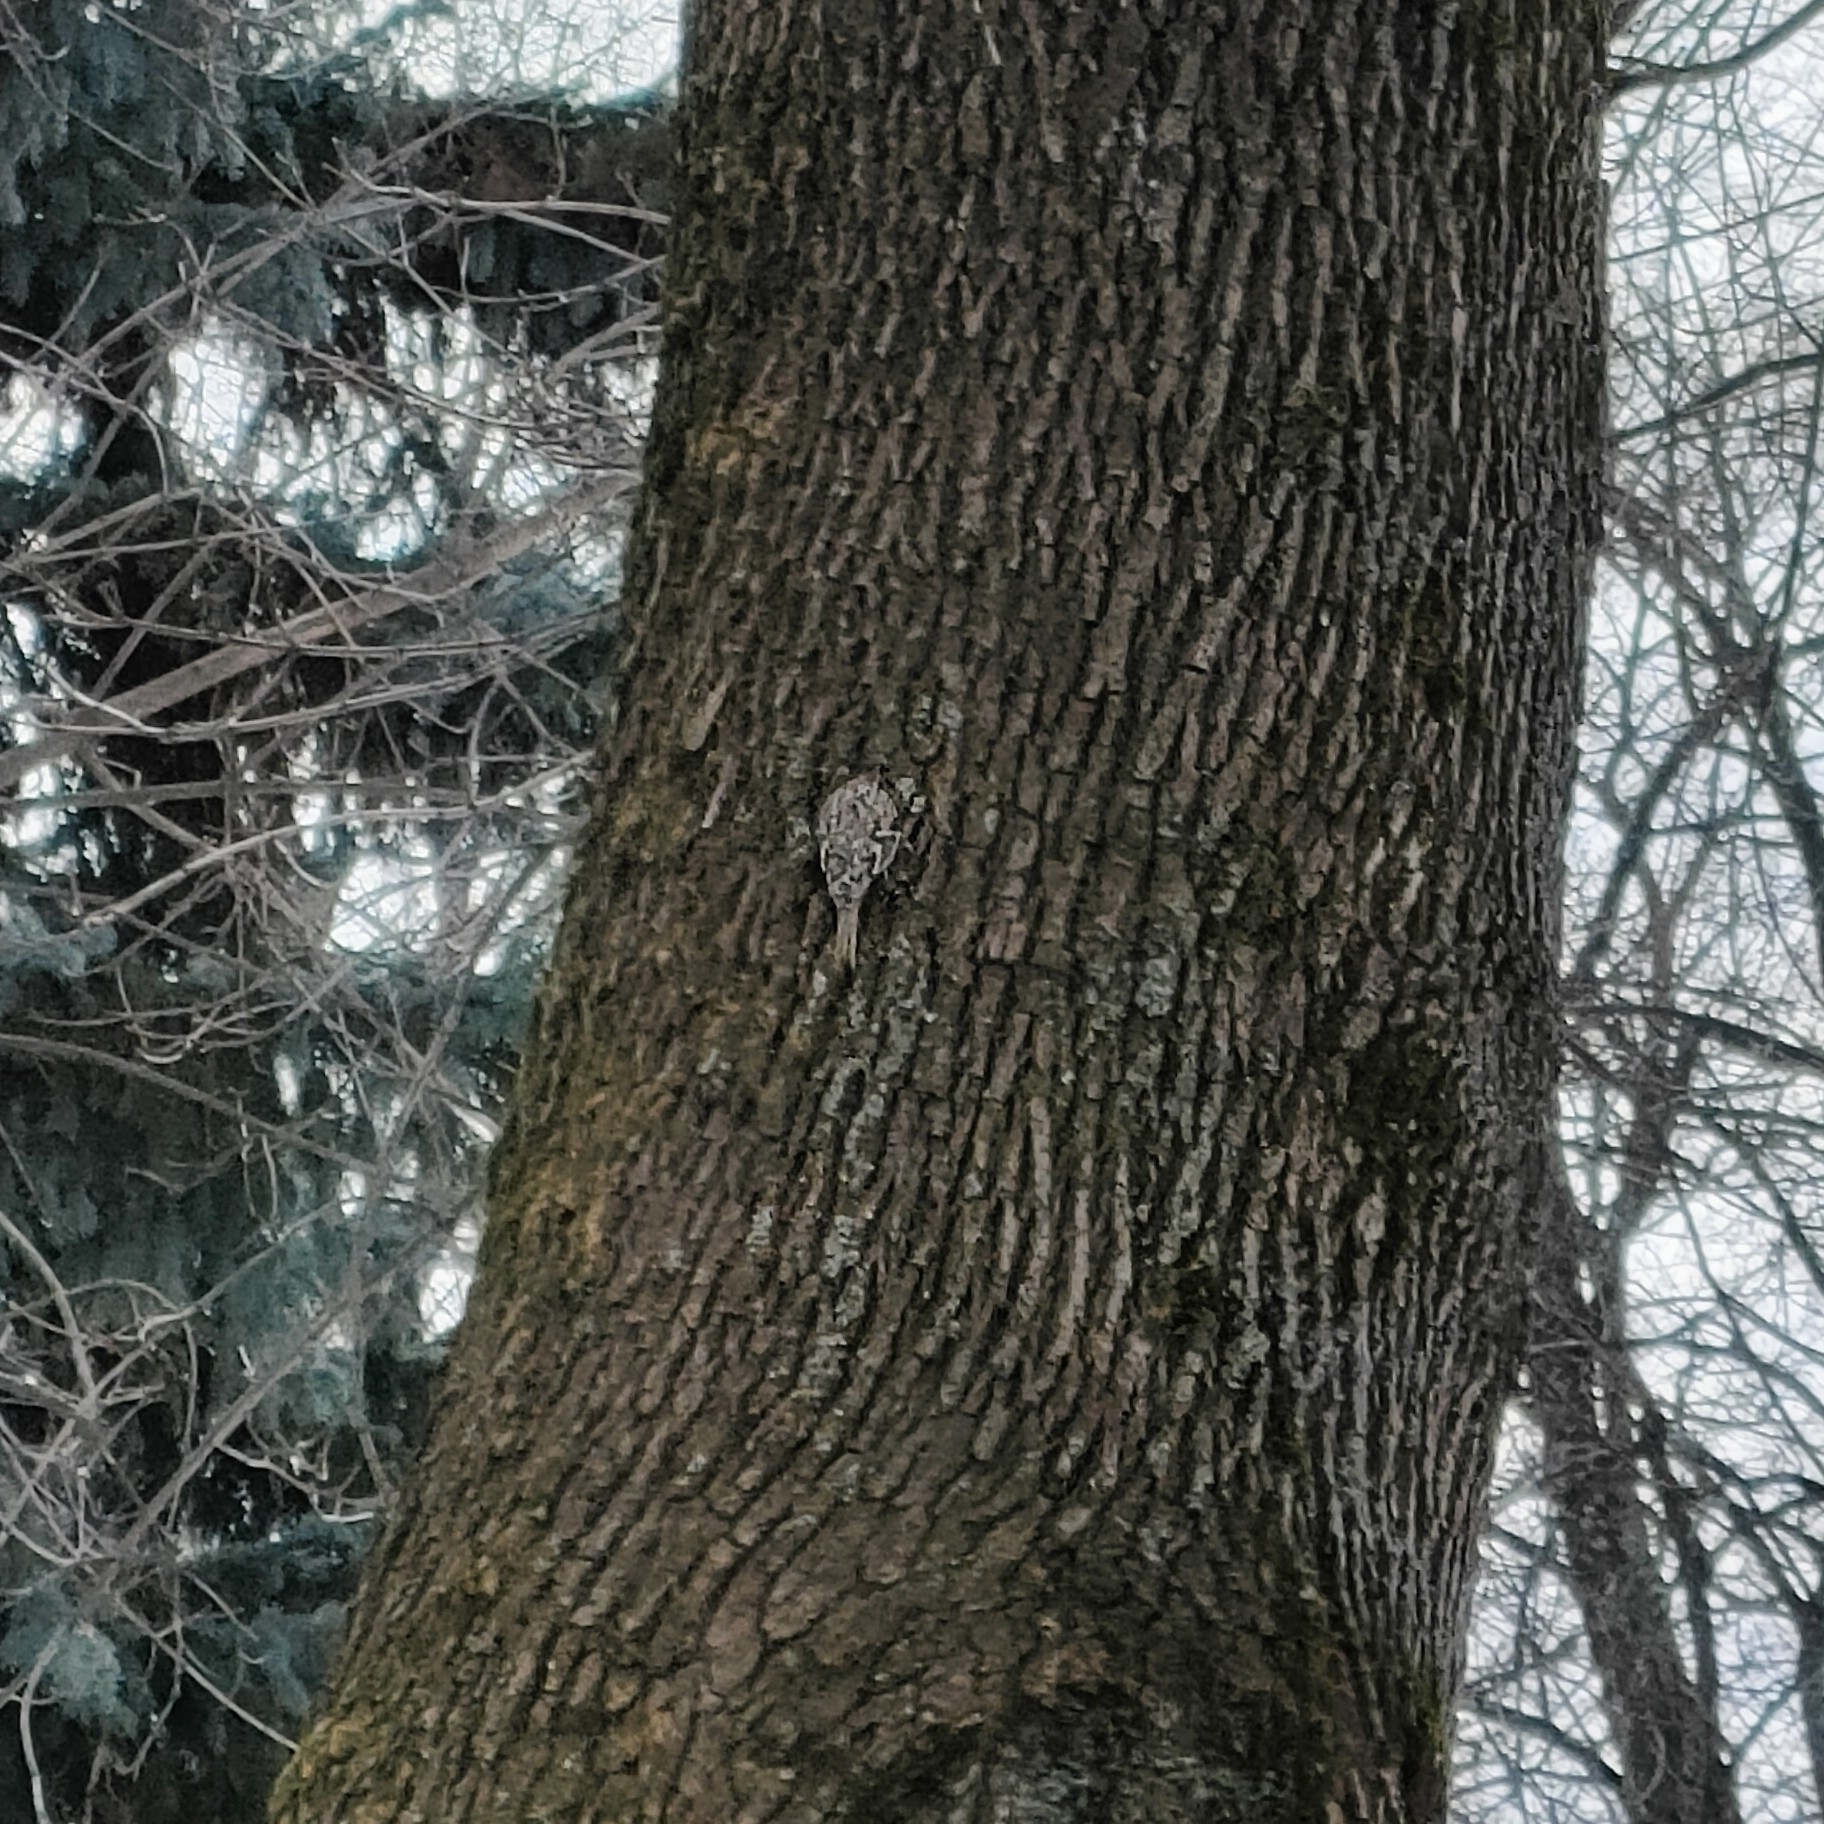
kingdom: Animalia
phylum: Chordata
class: Aves
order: Passeriformes
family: Certhiidae
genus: Certhia
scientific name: Certhia familiaris
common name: Eurasian treecreeper
